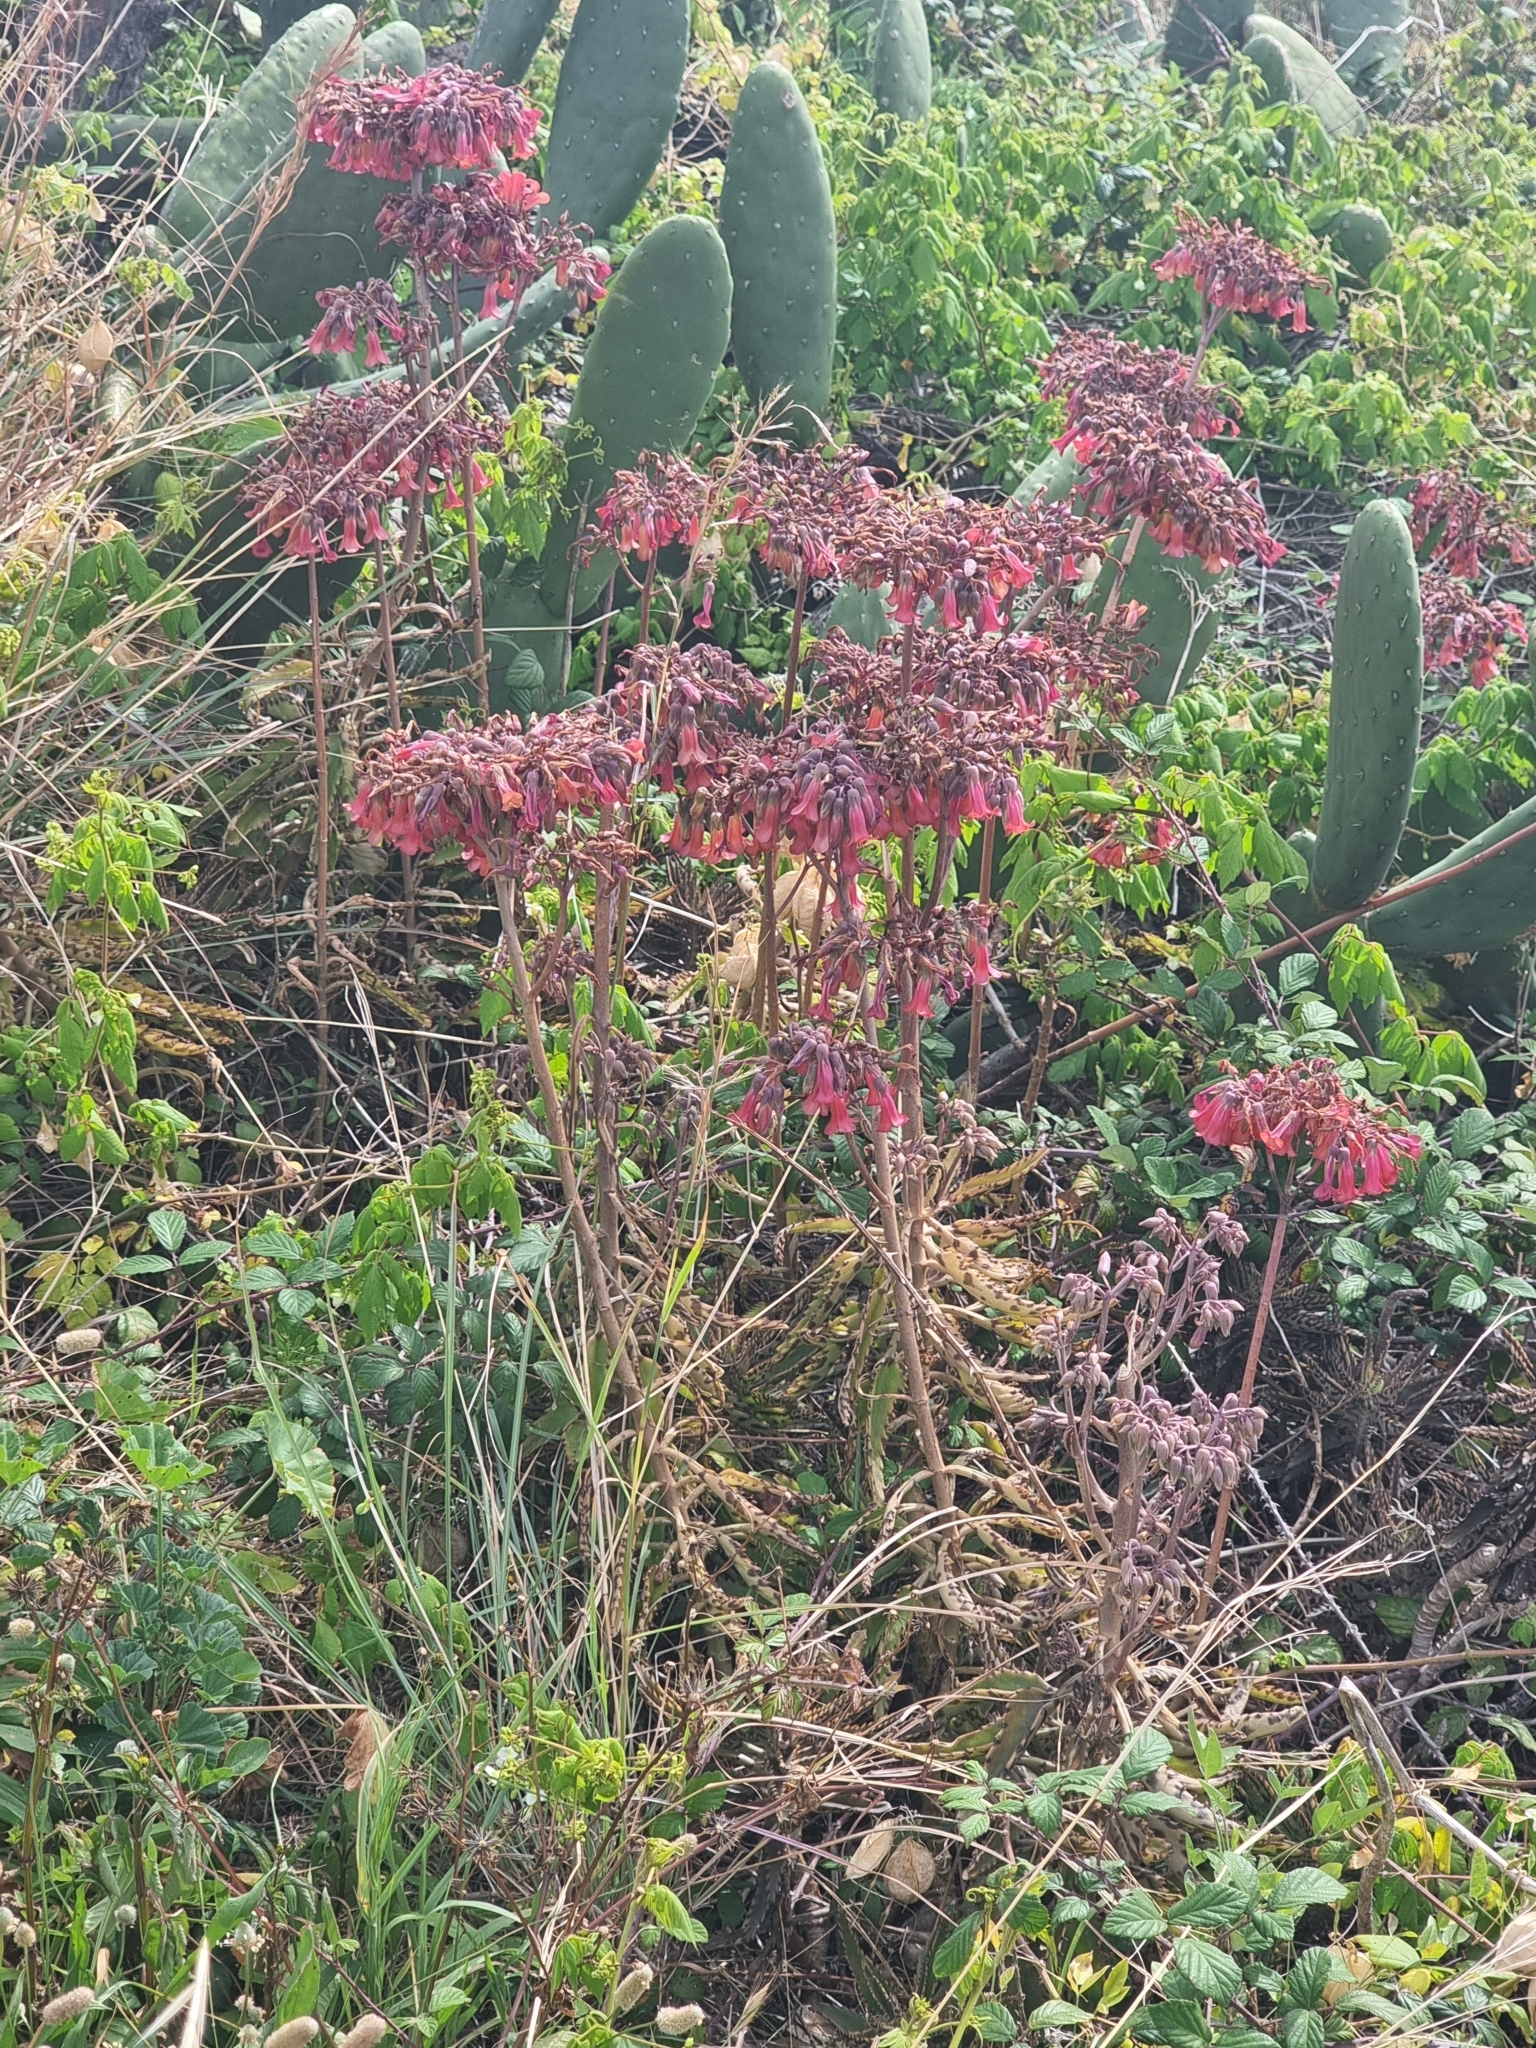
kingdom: Plantae
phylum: Tracheophyta
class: Magnoliopsida
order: Saxifragales
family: Crassulaceae
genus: Kalanchoe
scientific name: Kalanchoe houghtonii
